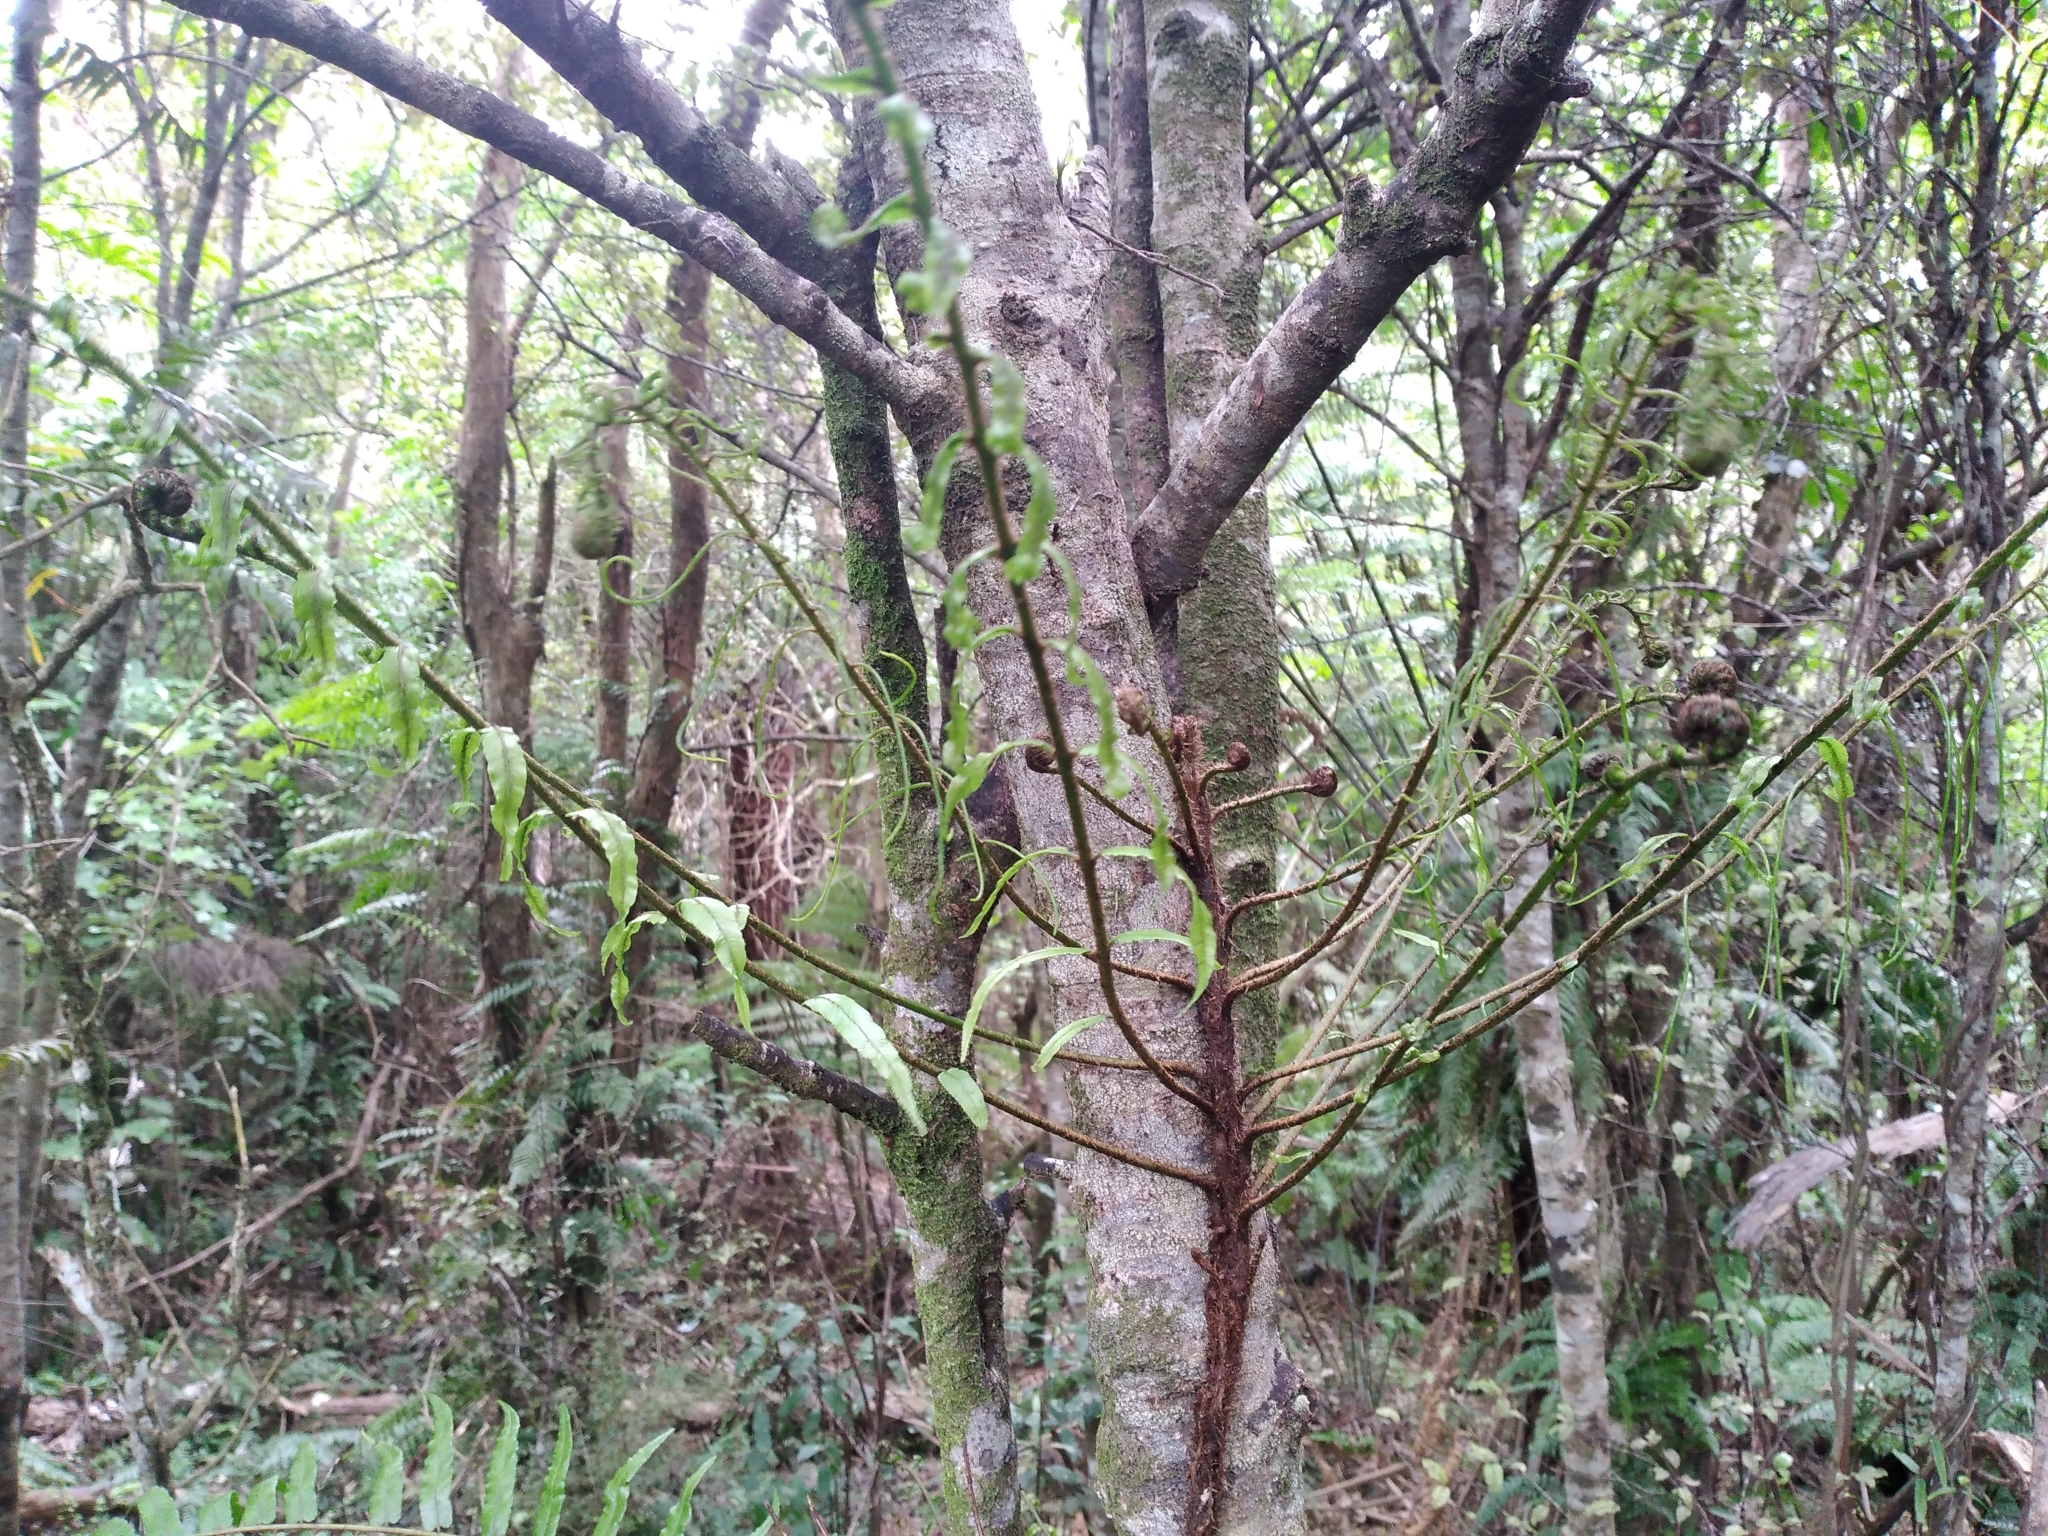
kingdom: Plantae
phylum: Tracheophyta
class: Polypodiopsida
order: Polypodiales
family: Blechnaceae
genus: Icarus
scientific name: Icarus filiformis
